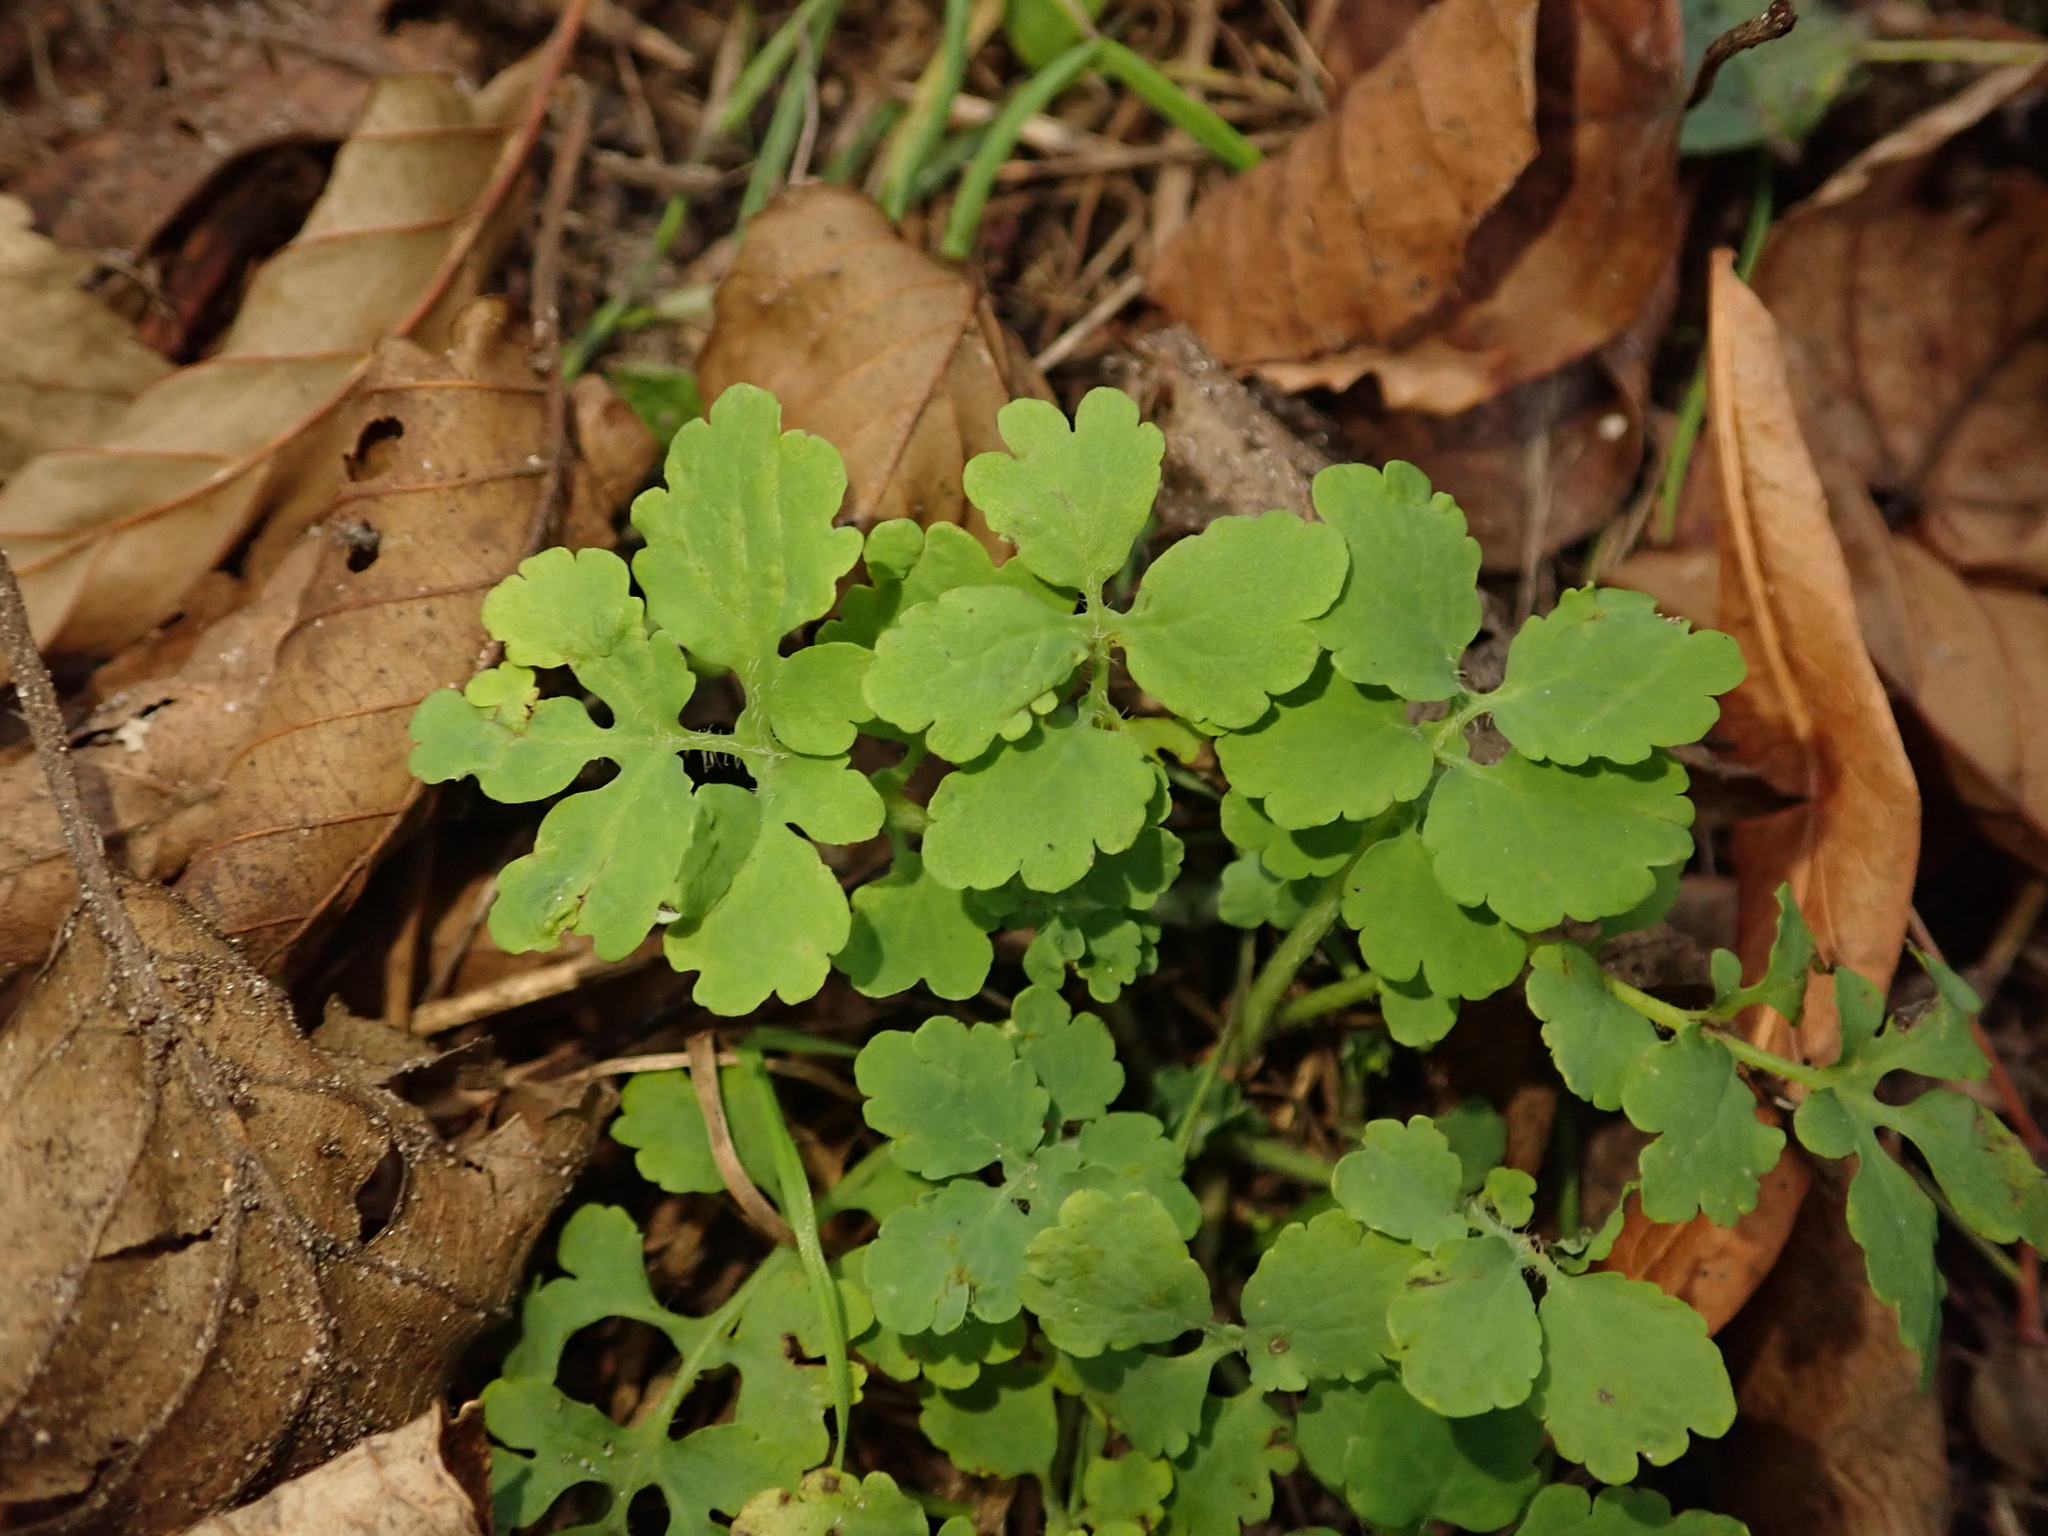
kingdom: Plantae
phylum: Tracheophyta
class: Magnoliopsida
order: Ranunculales
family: Papaveraceae
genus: Chelidonium
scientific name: Chelidonium majus
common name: Greater celandine
